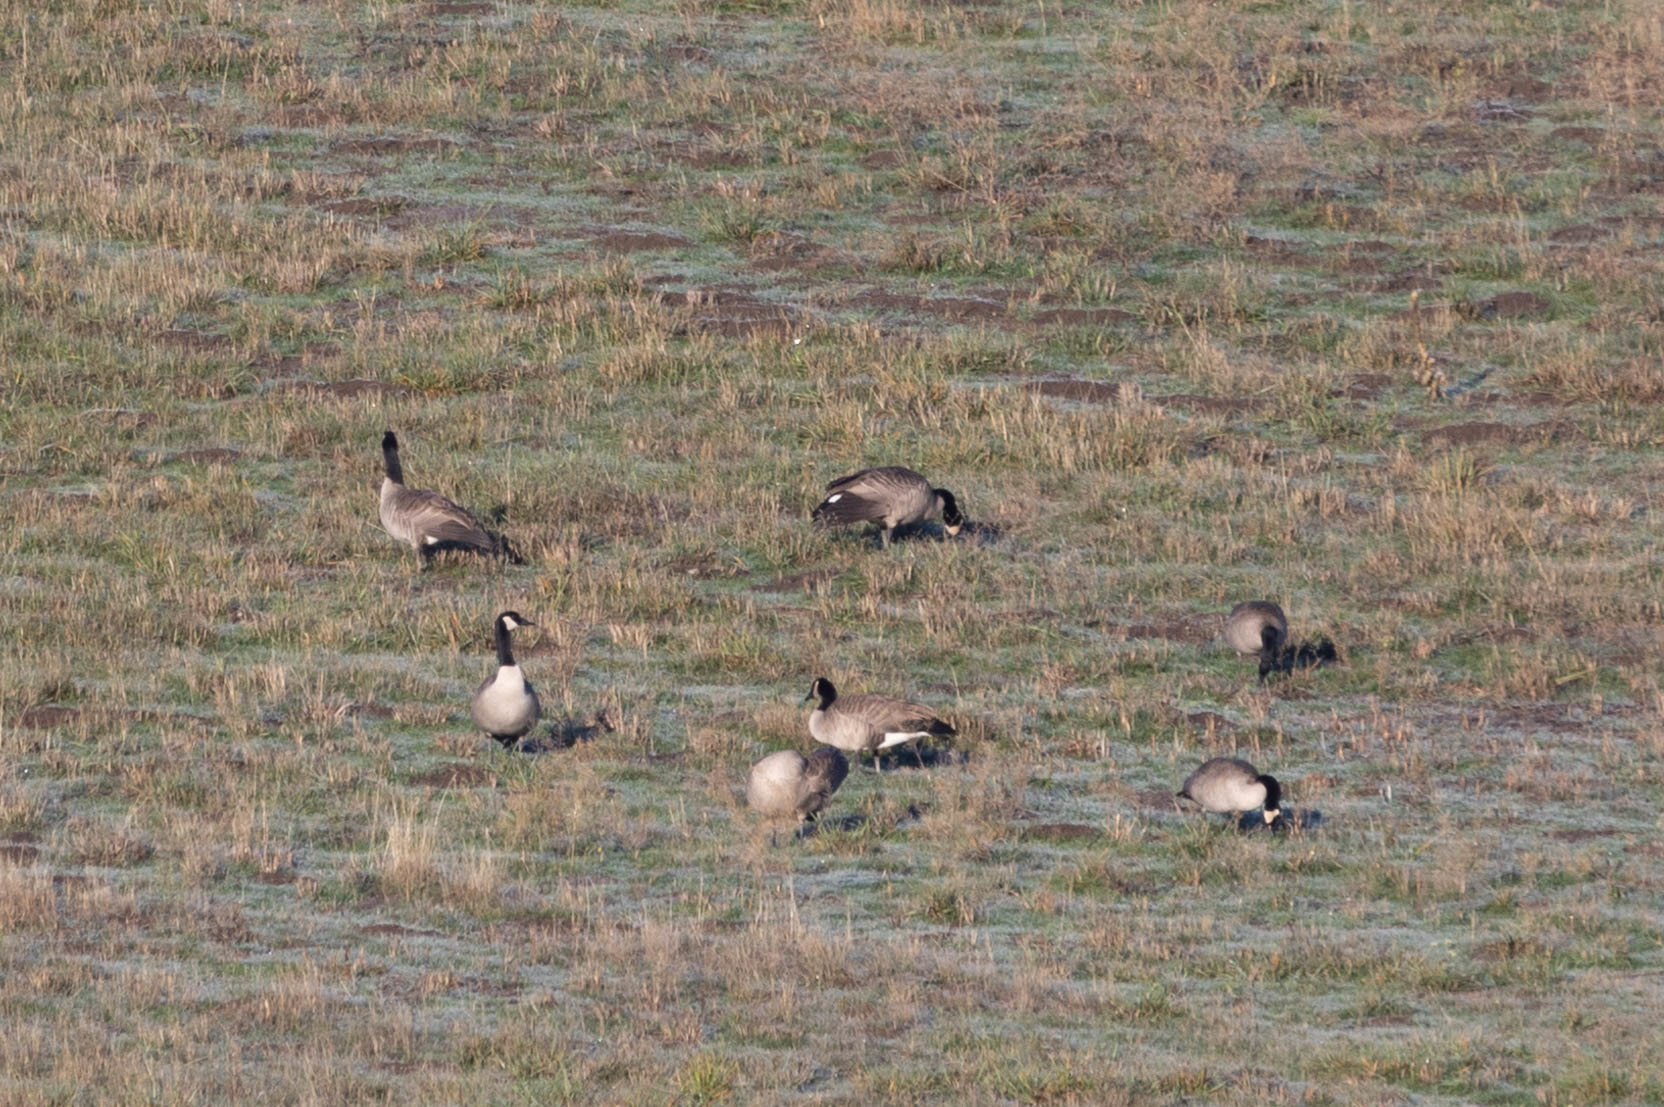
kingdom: Animalia
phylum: Chordata
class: Aves
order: Anseriformes
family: Anatidae
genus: Branta
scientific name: Branta canadensis
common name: Canada goose
